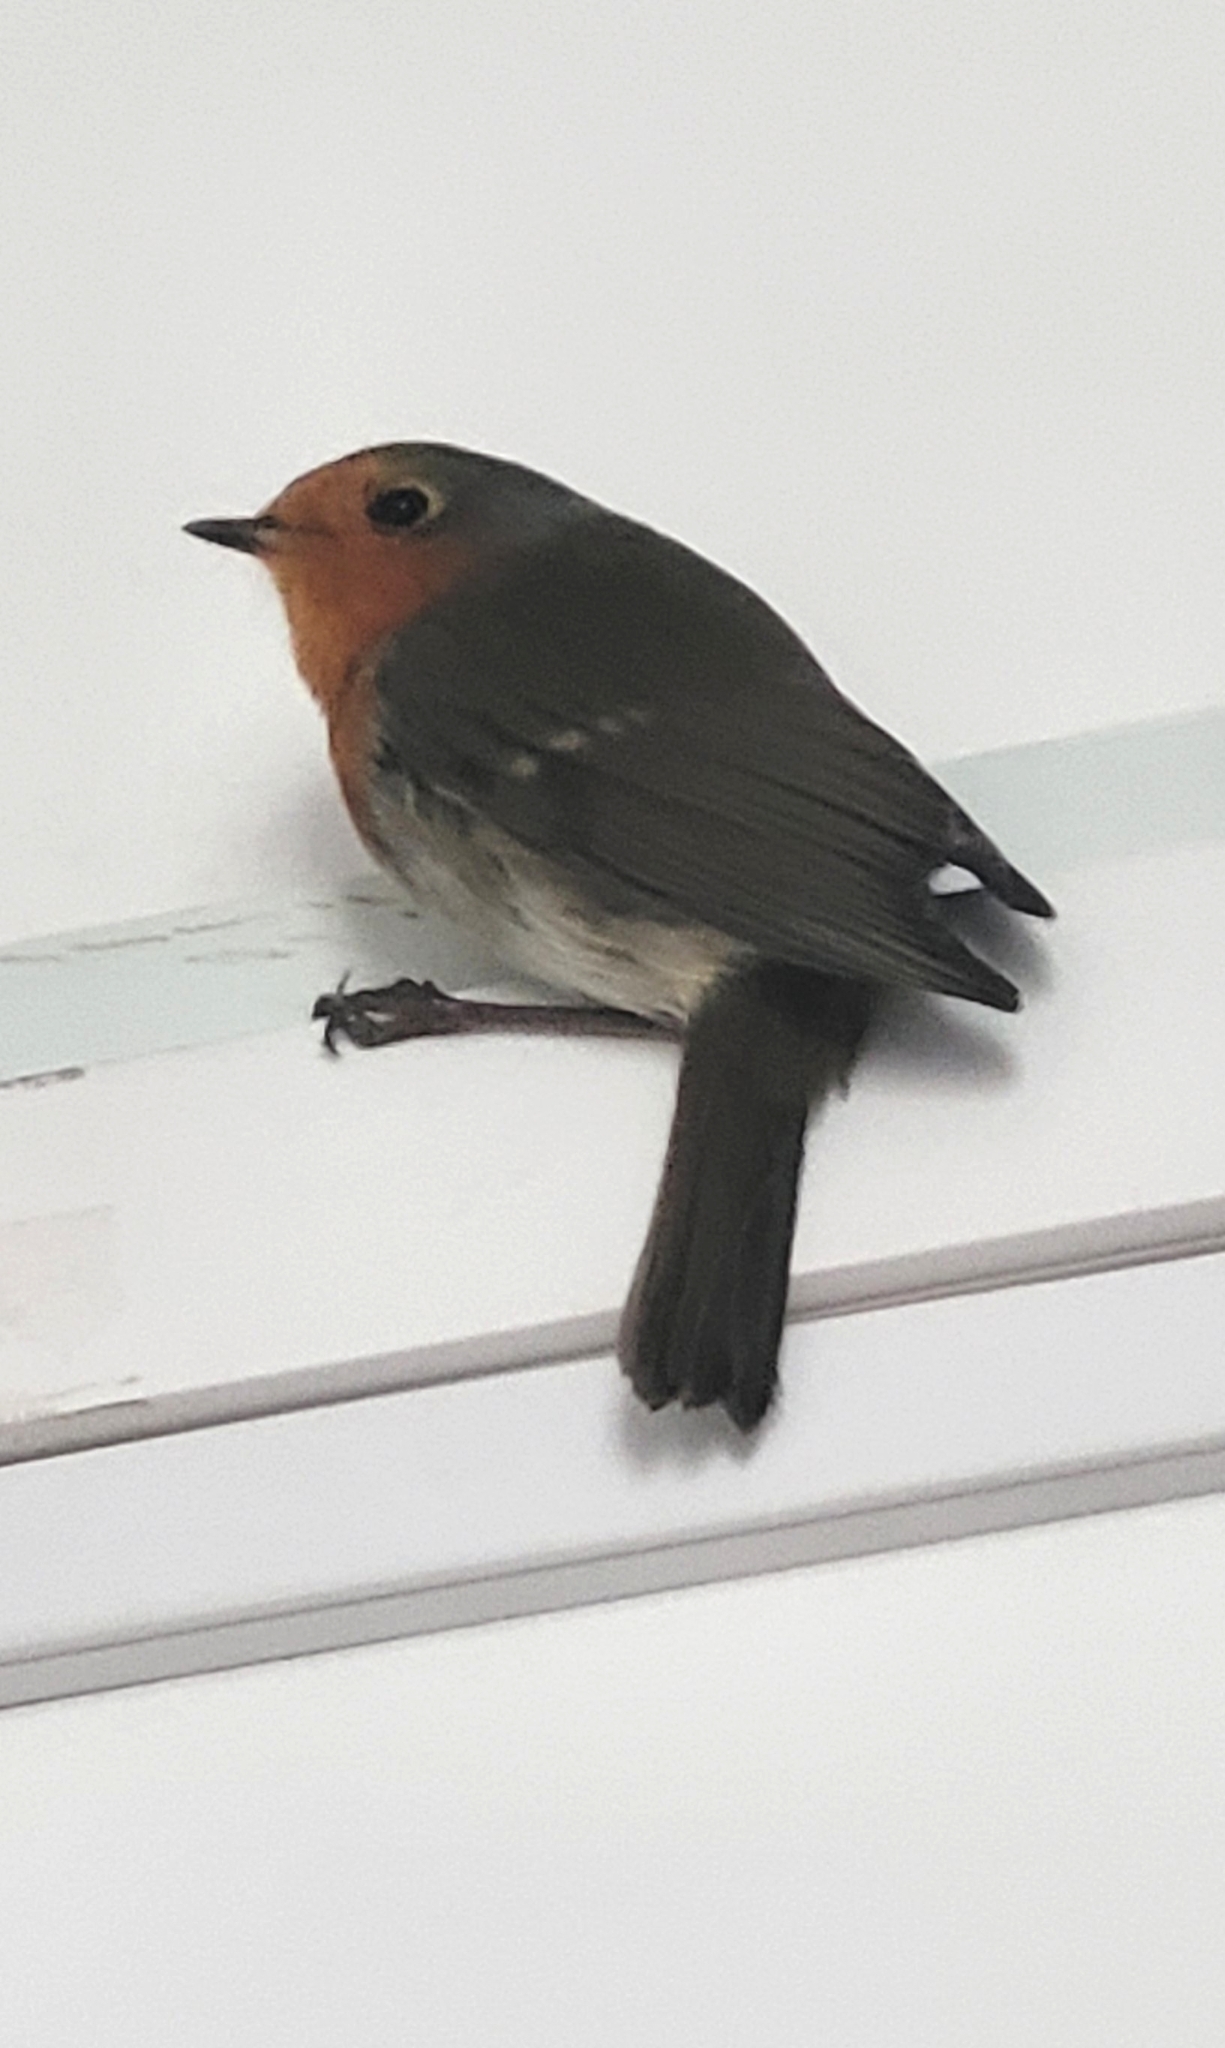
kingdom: Animalia
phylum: Chordata
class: Aves
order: Passeriformes
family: Muscicapidae
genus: Erithacus
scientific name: Erithacus rubecula
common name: European robin
